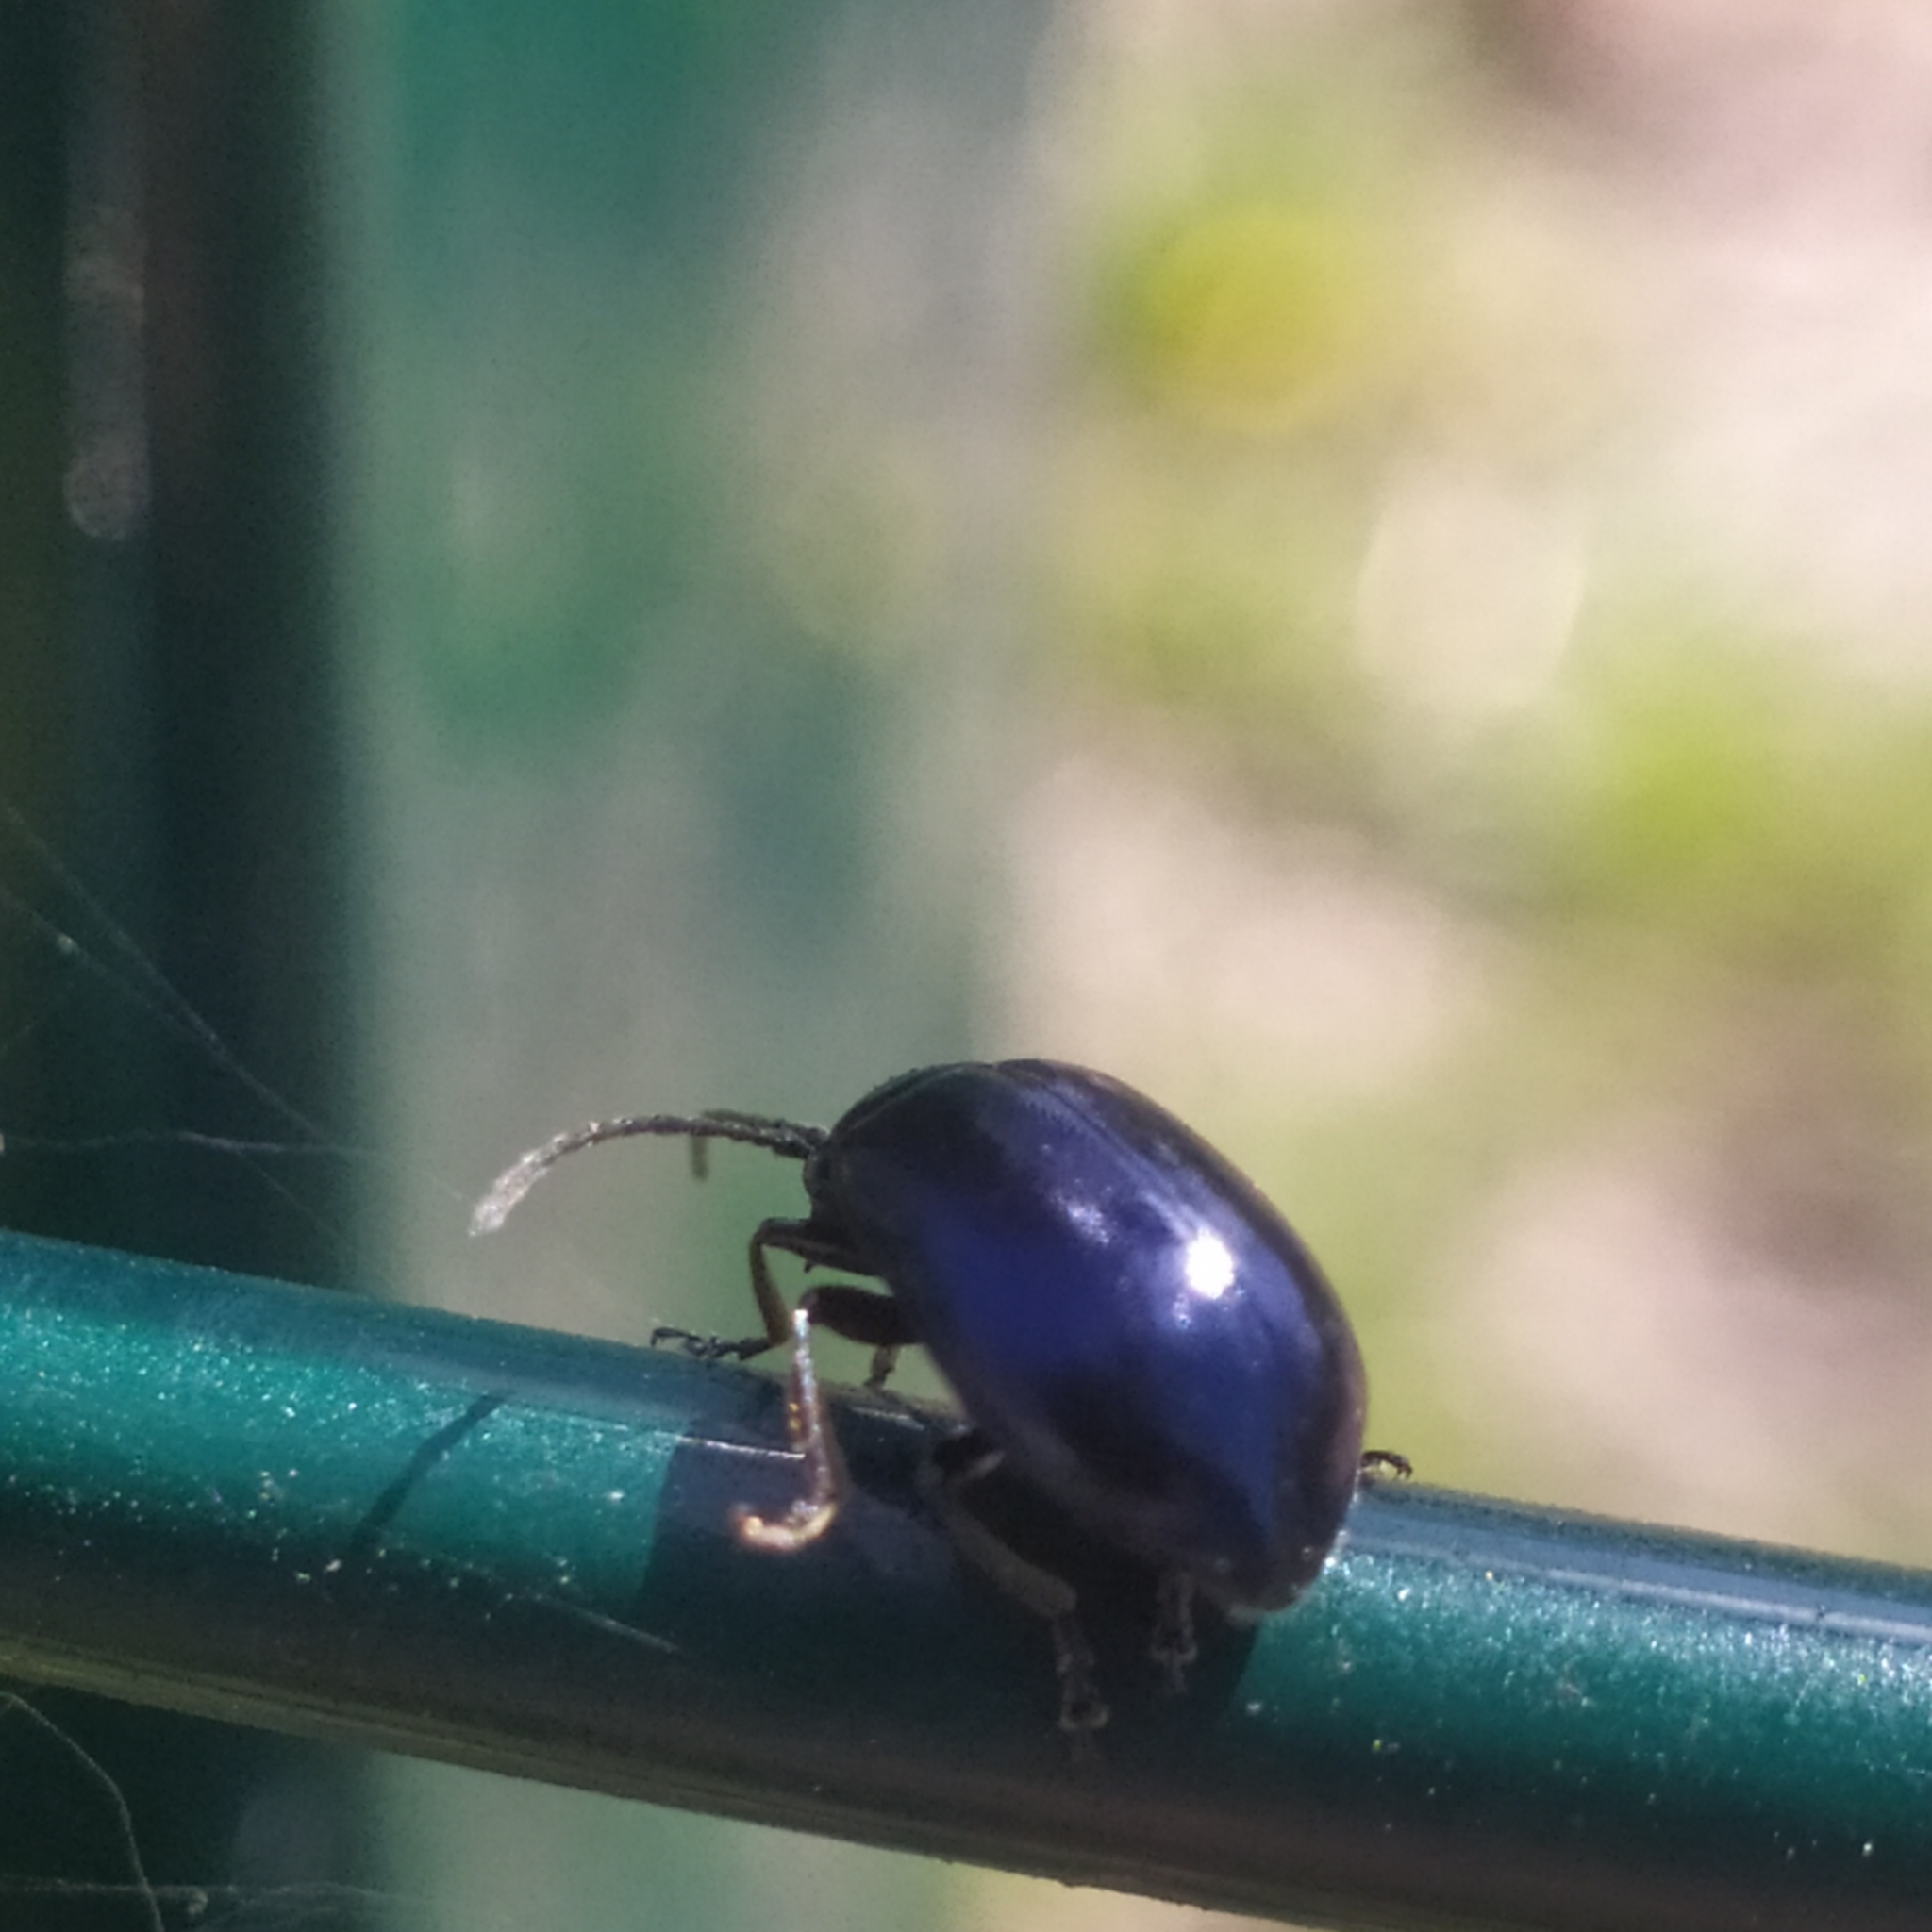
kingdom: Animalia
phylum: Arthropoda
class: Insecta
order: Coleoptera
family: Chrysomelidae
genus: Agelastica
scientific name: Agelastica alni
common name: Alder leaf beetle
